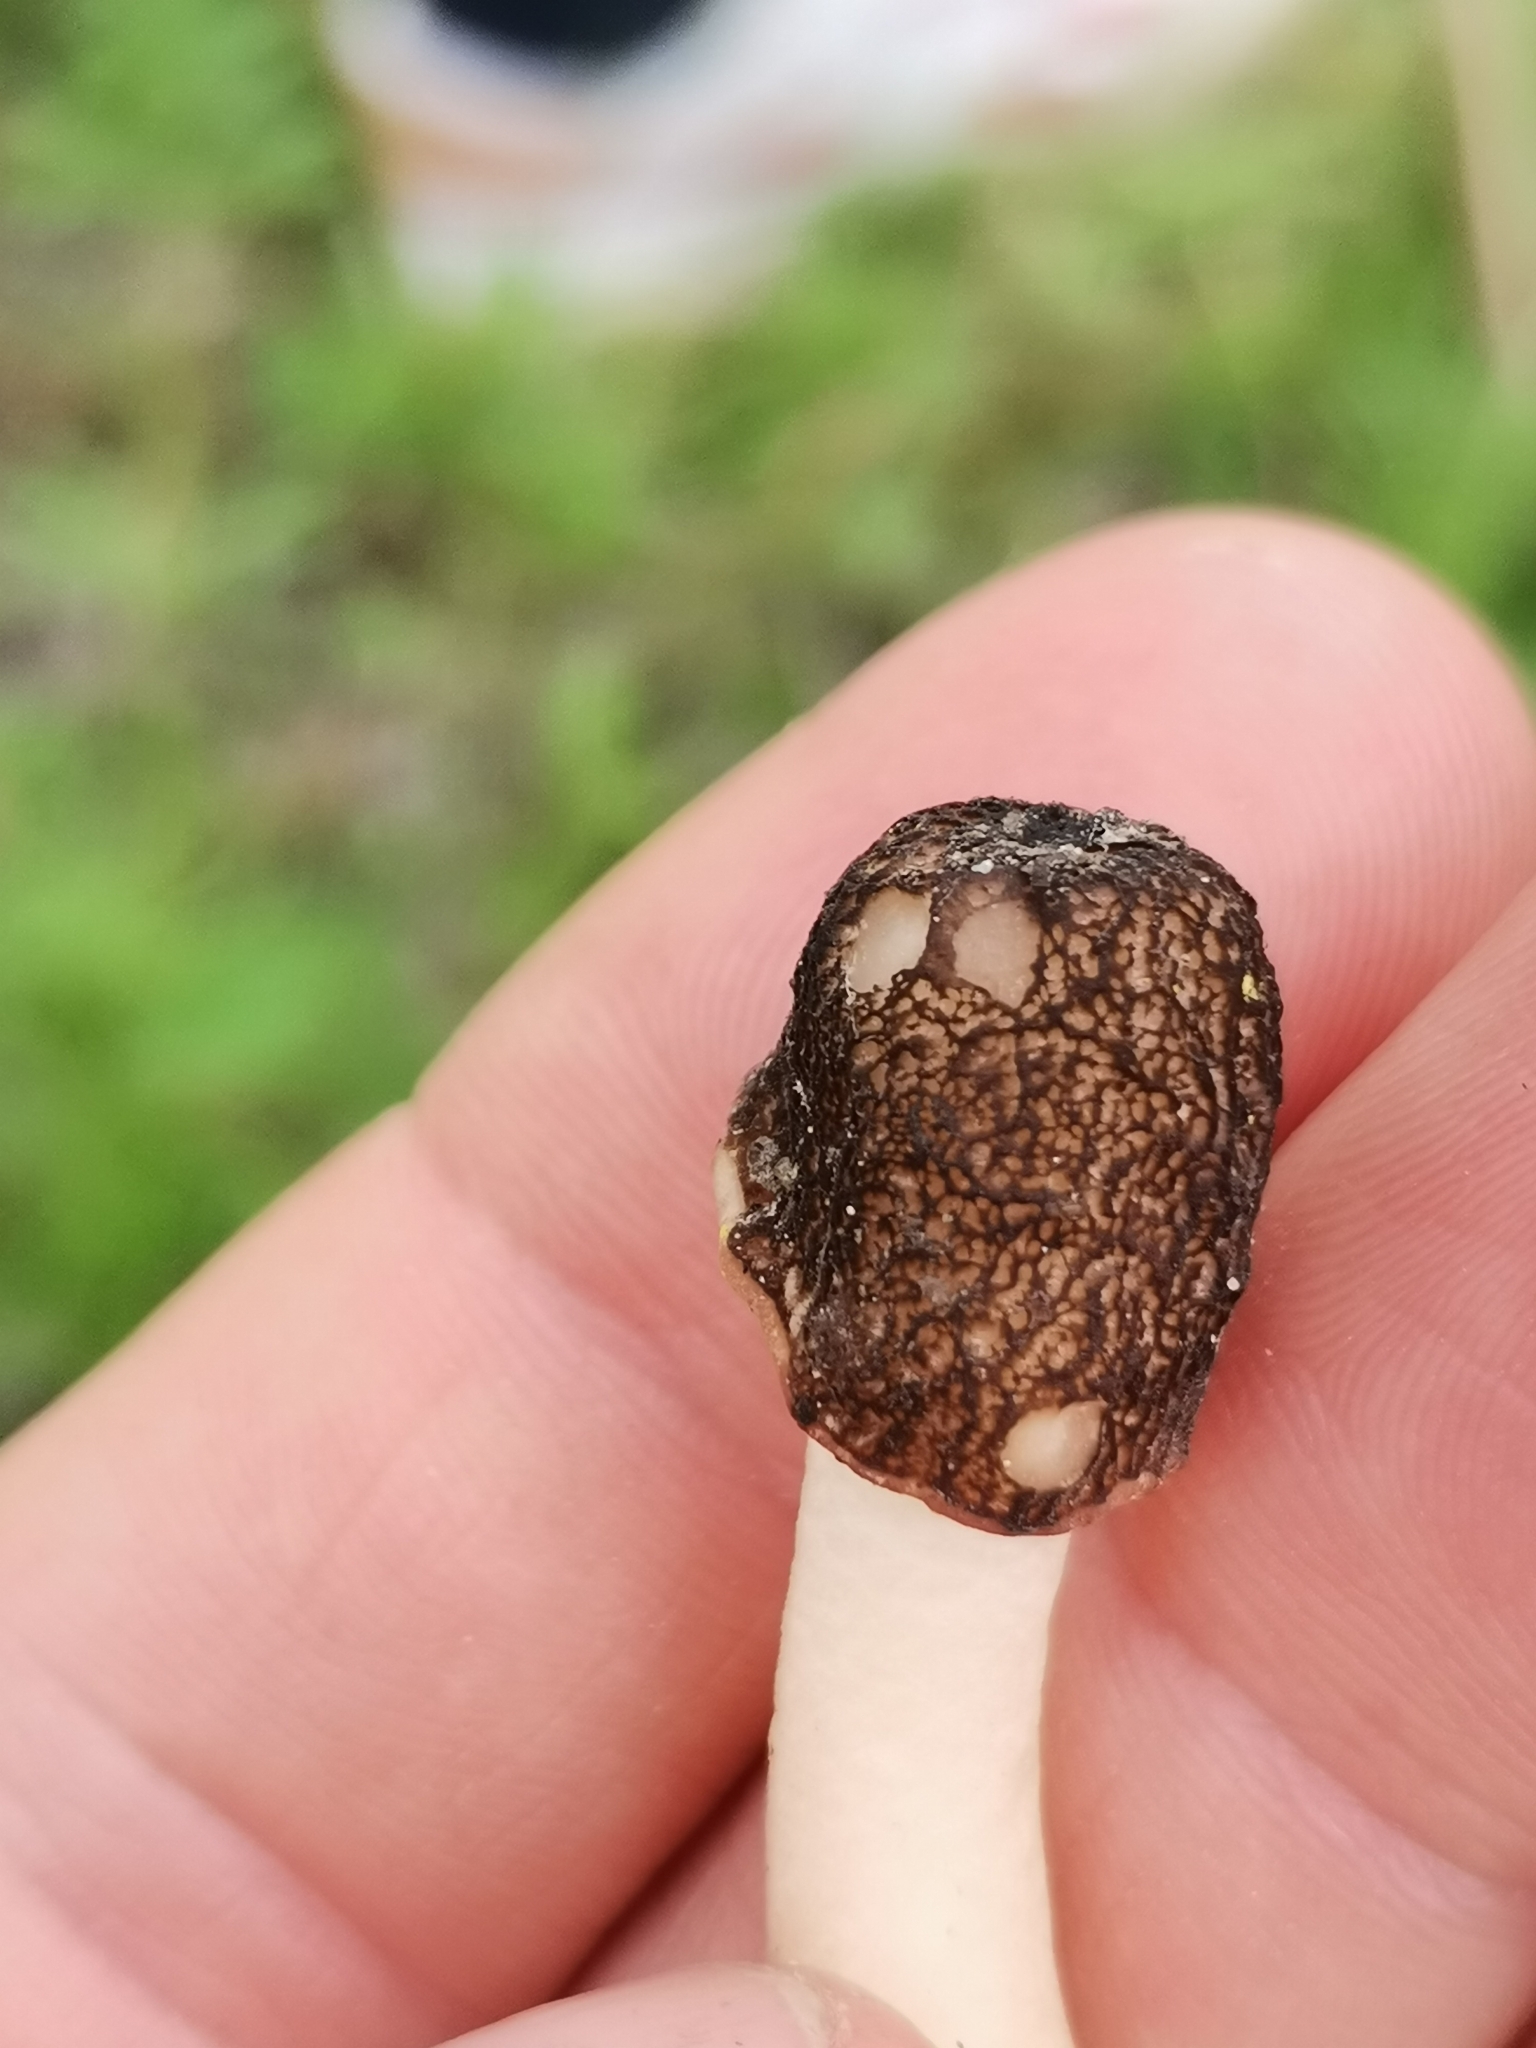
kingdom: Fungi
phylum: Ascomycota
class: Pezizomycetes
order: Pezizales
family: Morchellaceae
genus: Verpa
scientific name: Verpa conica
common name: Thimble morel
